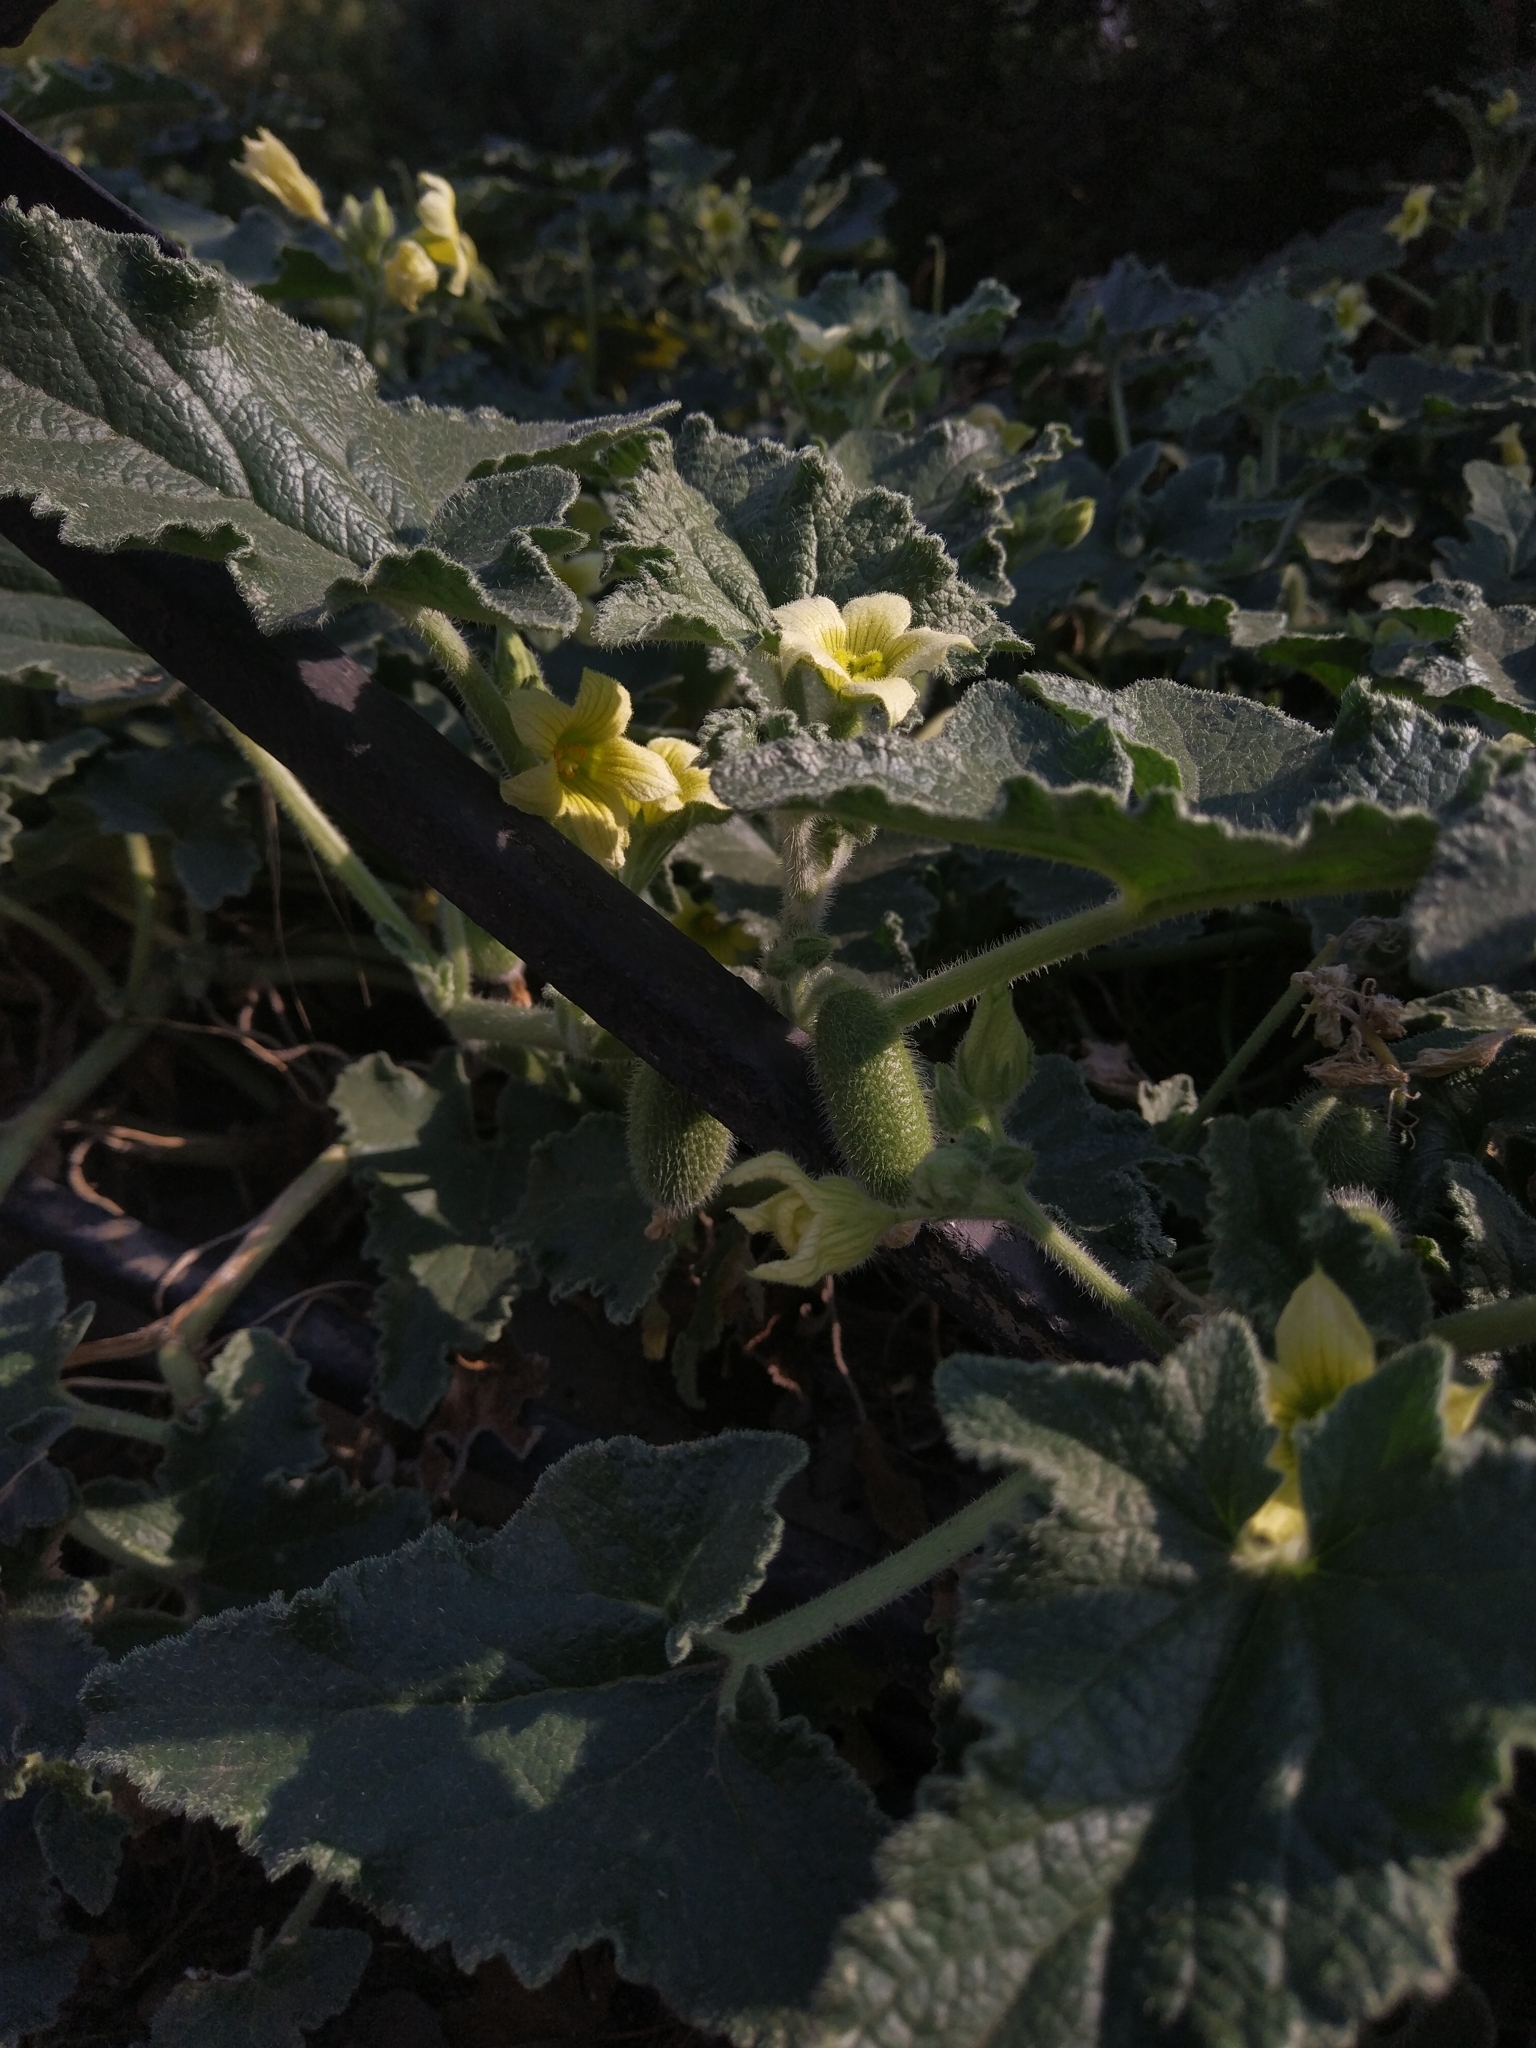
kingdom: Plantae
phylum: Tracheophyta
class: Magnoliopsida
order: Cucurbitales
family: Cucurbitaceae
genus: Ecballium
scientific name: Ecballium elaterium
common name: Squirting cucumber
